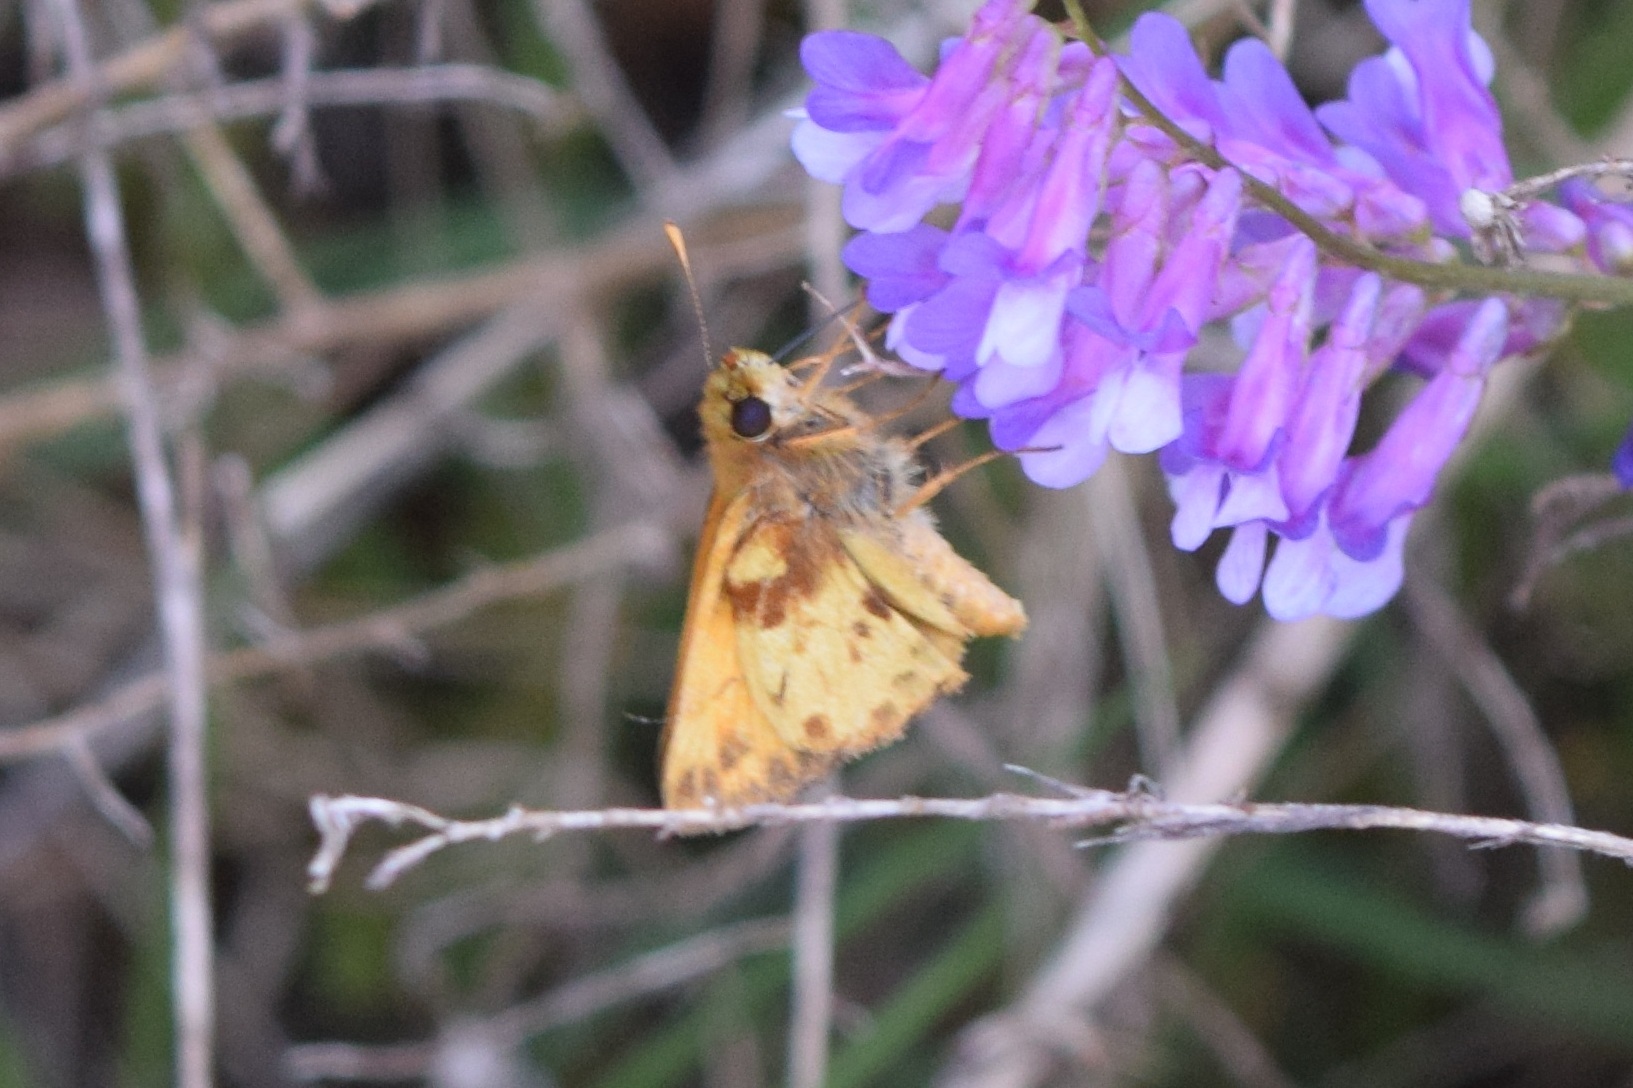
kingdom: Animalia
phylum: Arthropoda
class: Insecta
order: Lepidoptera
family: Hesperiidae
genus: Lon
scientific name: Lon zabulon
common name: Zabulon skipper
